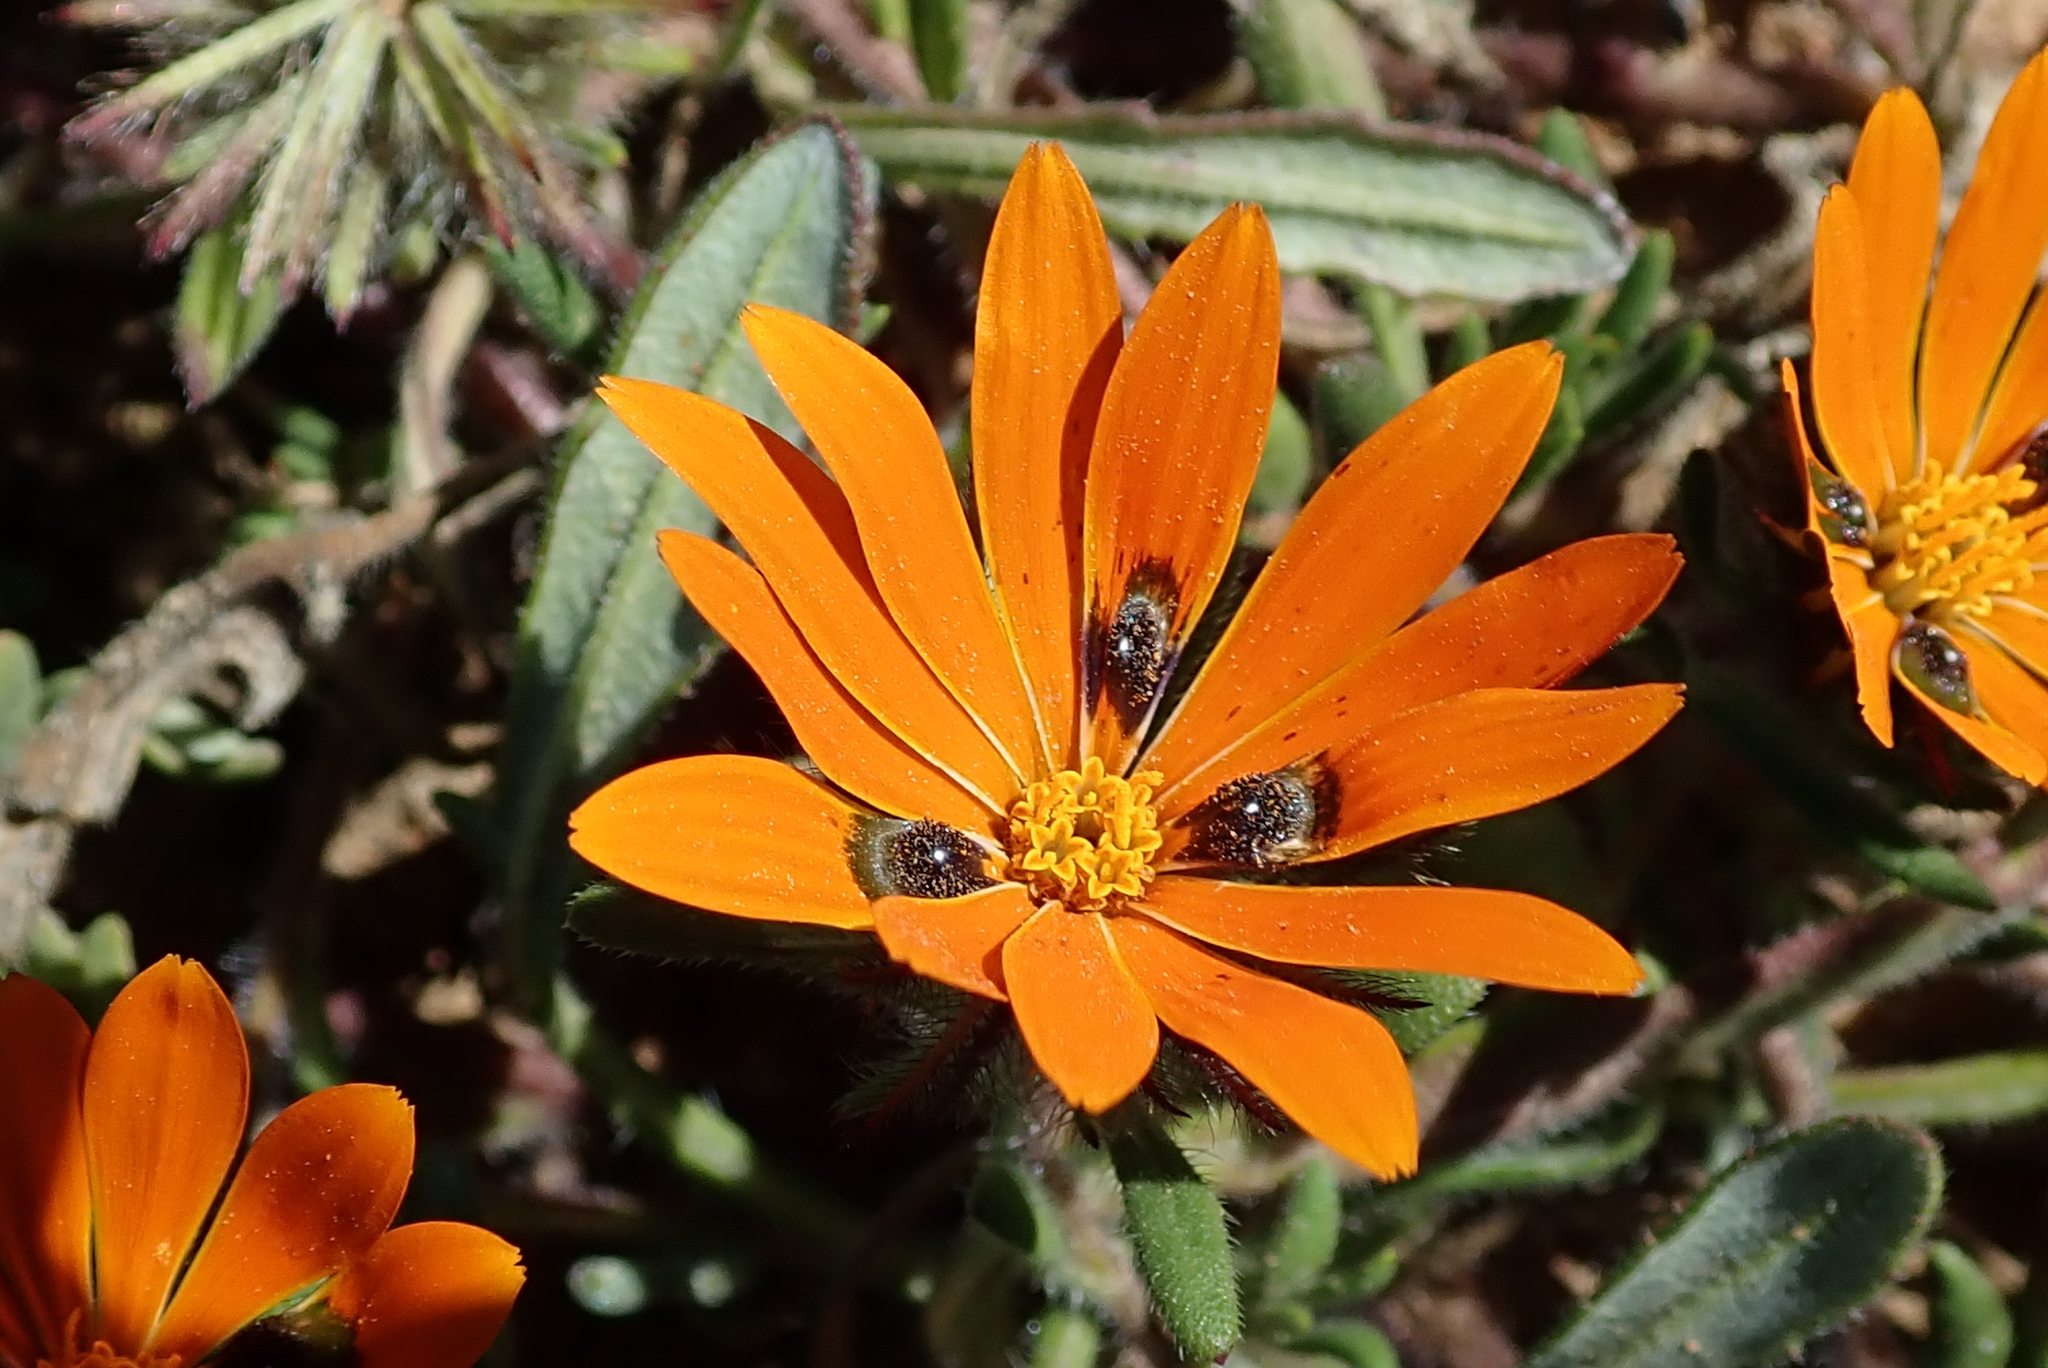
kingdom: Plantae
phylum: Tracheophyta
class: Magnoliopsida
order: Asterales
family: Asteraceae
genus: Gorteria
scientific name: Gorteria diffusa
